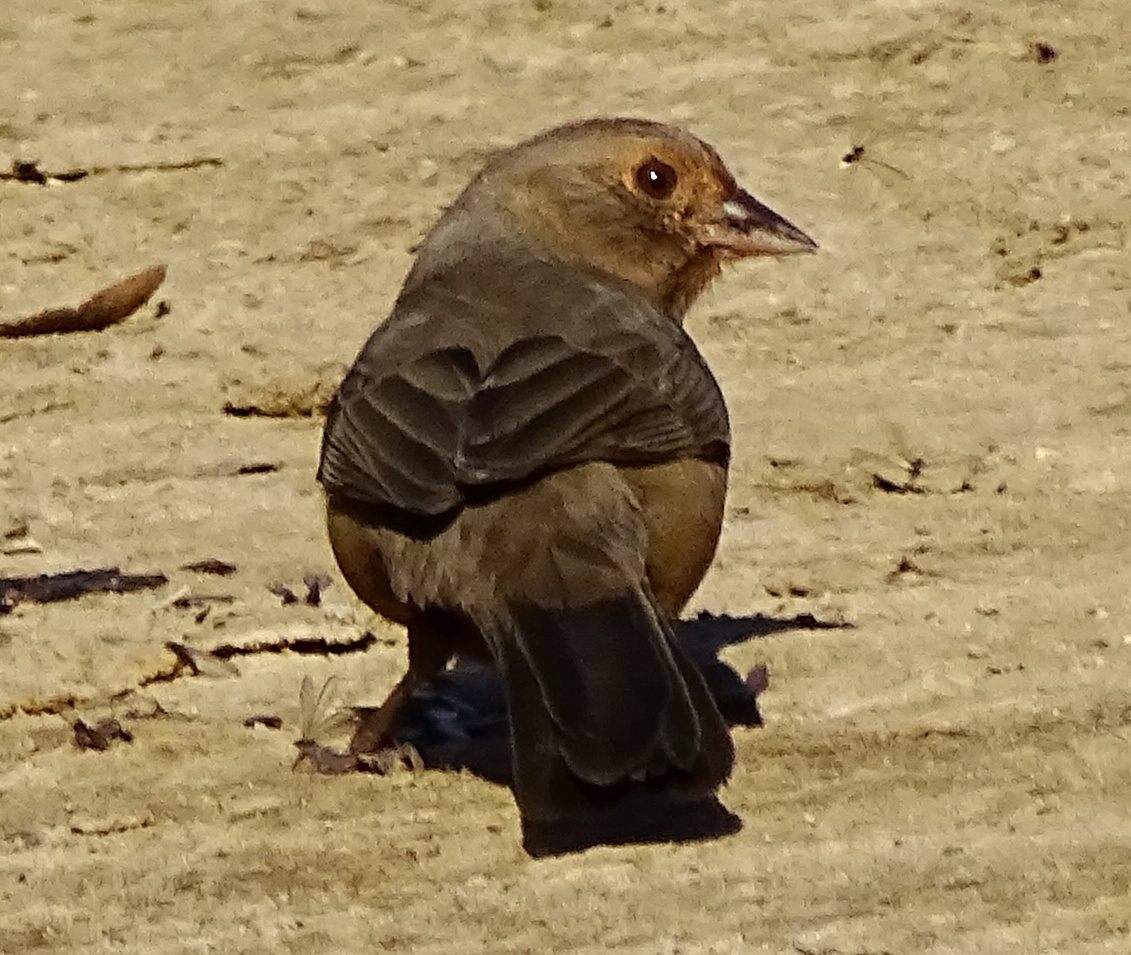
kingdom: Animalia
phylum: Chordata
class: Aves
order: Passeriformes
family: Passerellidae
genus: Melozone
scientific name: Melozone crissalis
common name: California towhee
